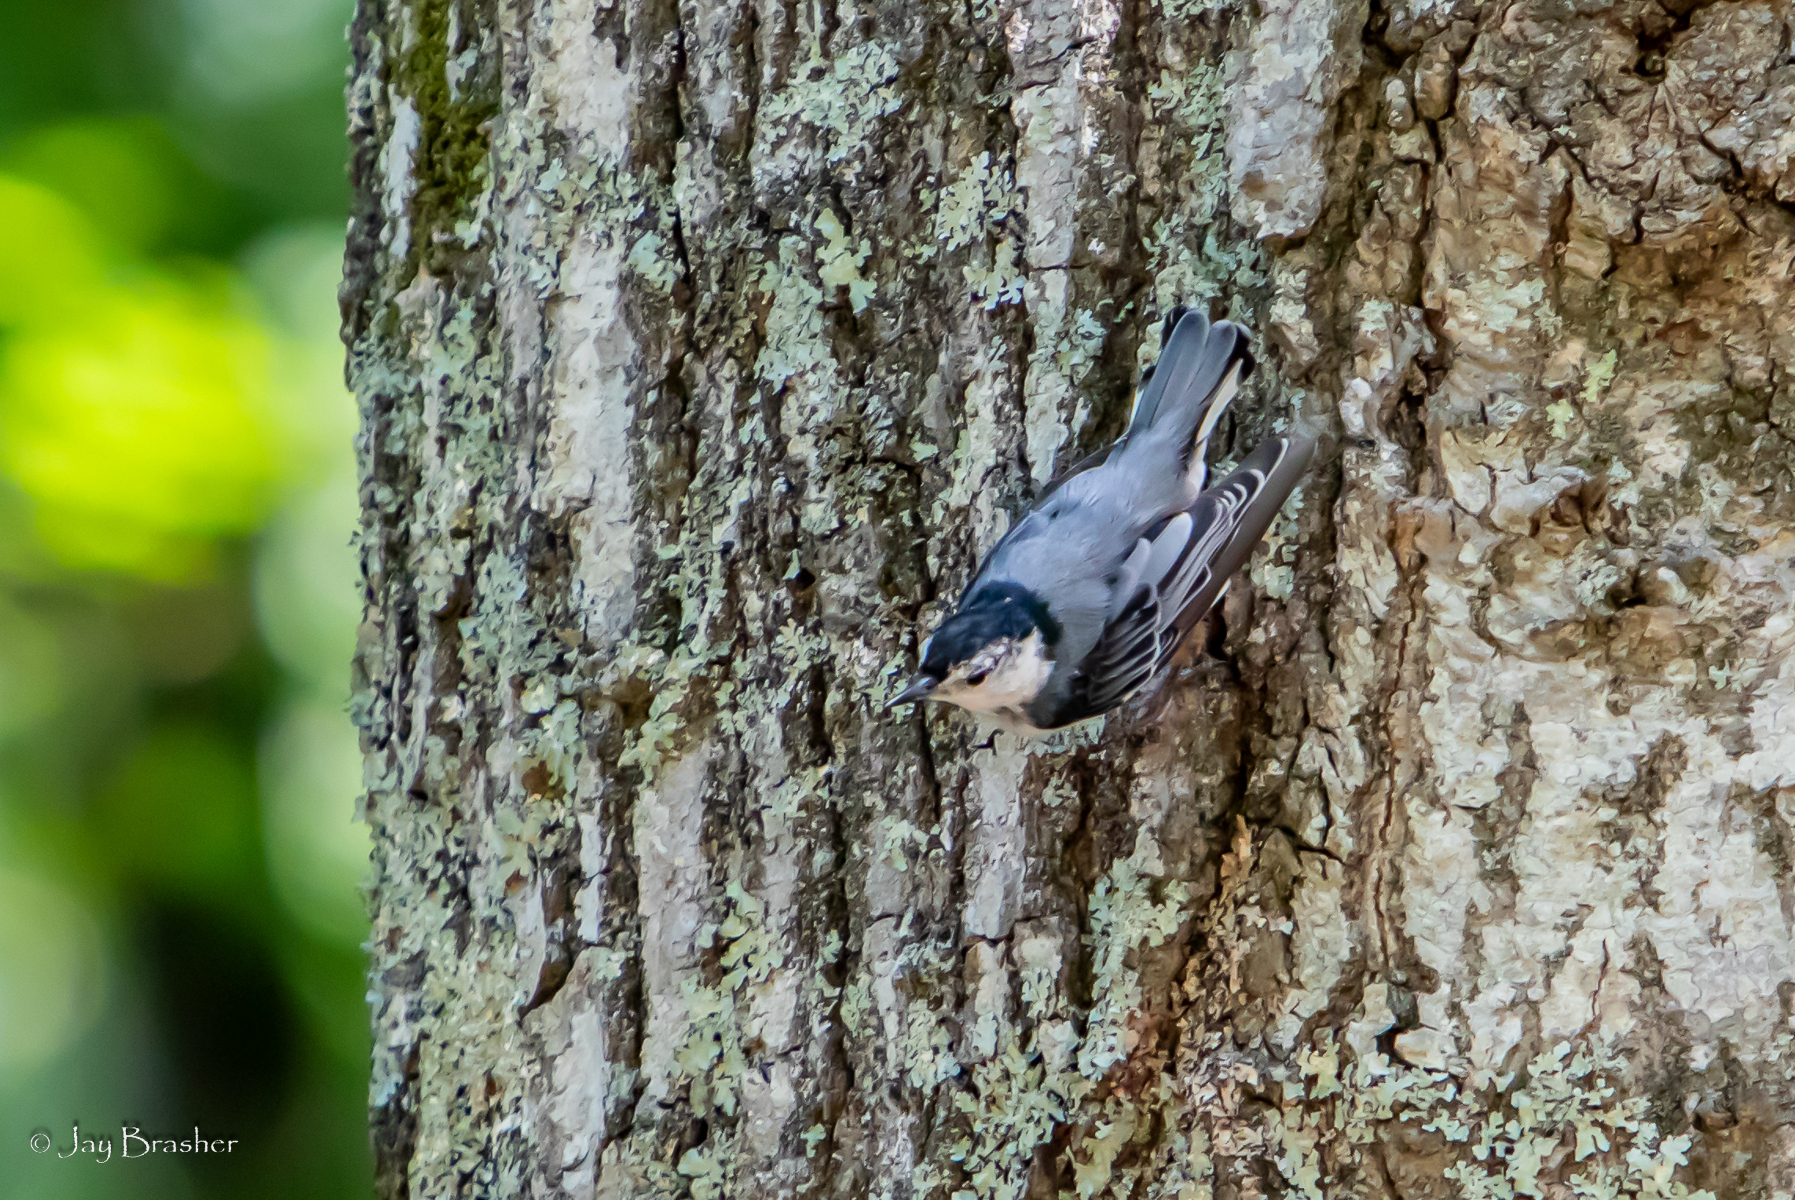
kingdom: Animalia
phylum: Chordata
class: Aves
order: Passeriformes
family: Sittidae
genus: Sitta
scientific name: Sitta carolinensis
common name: White-breasted nuthatch
